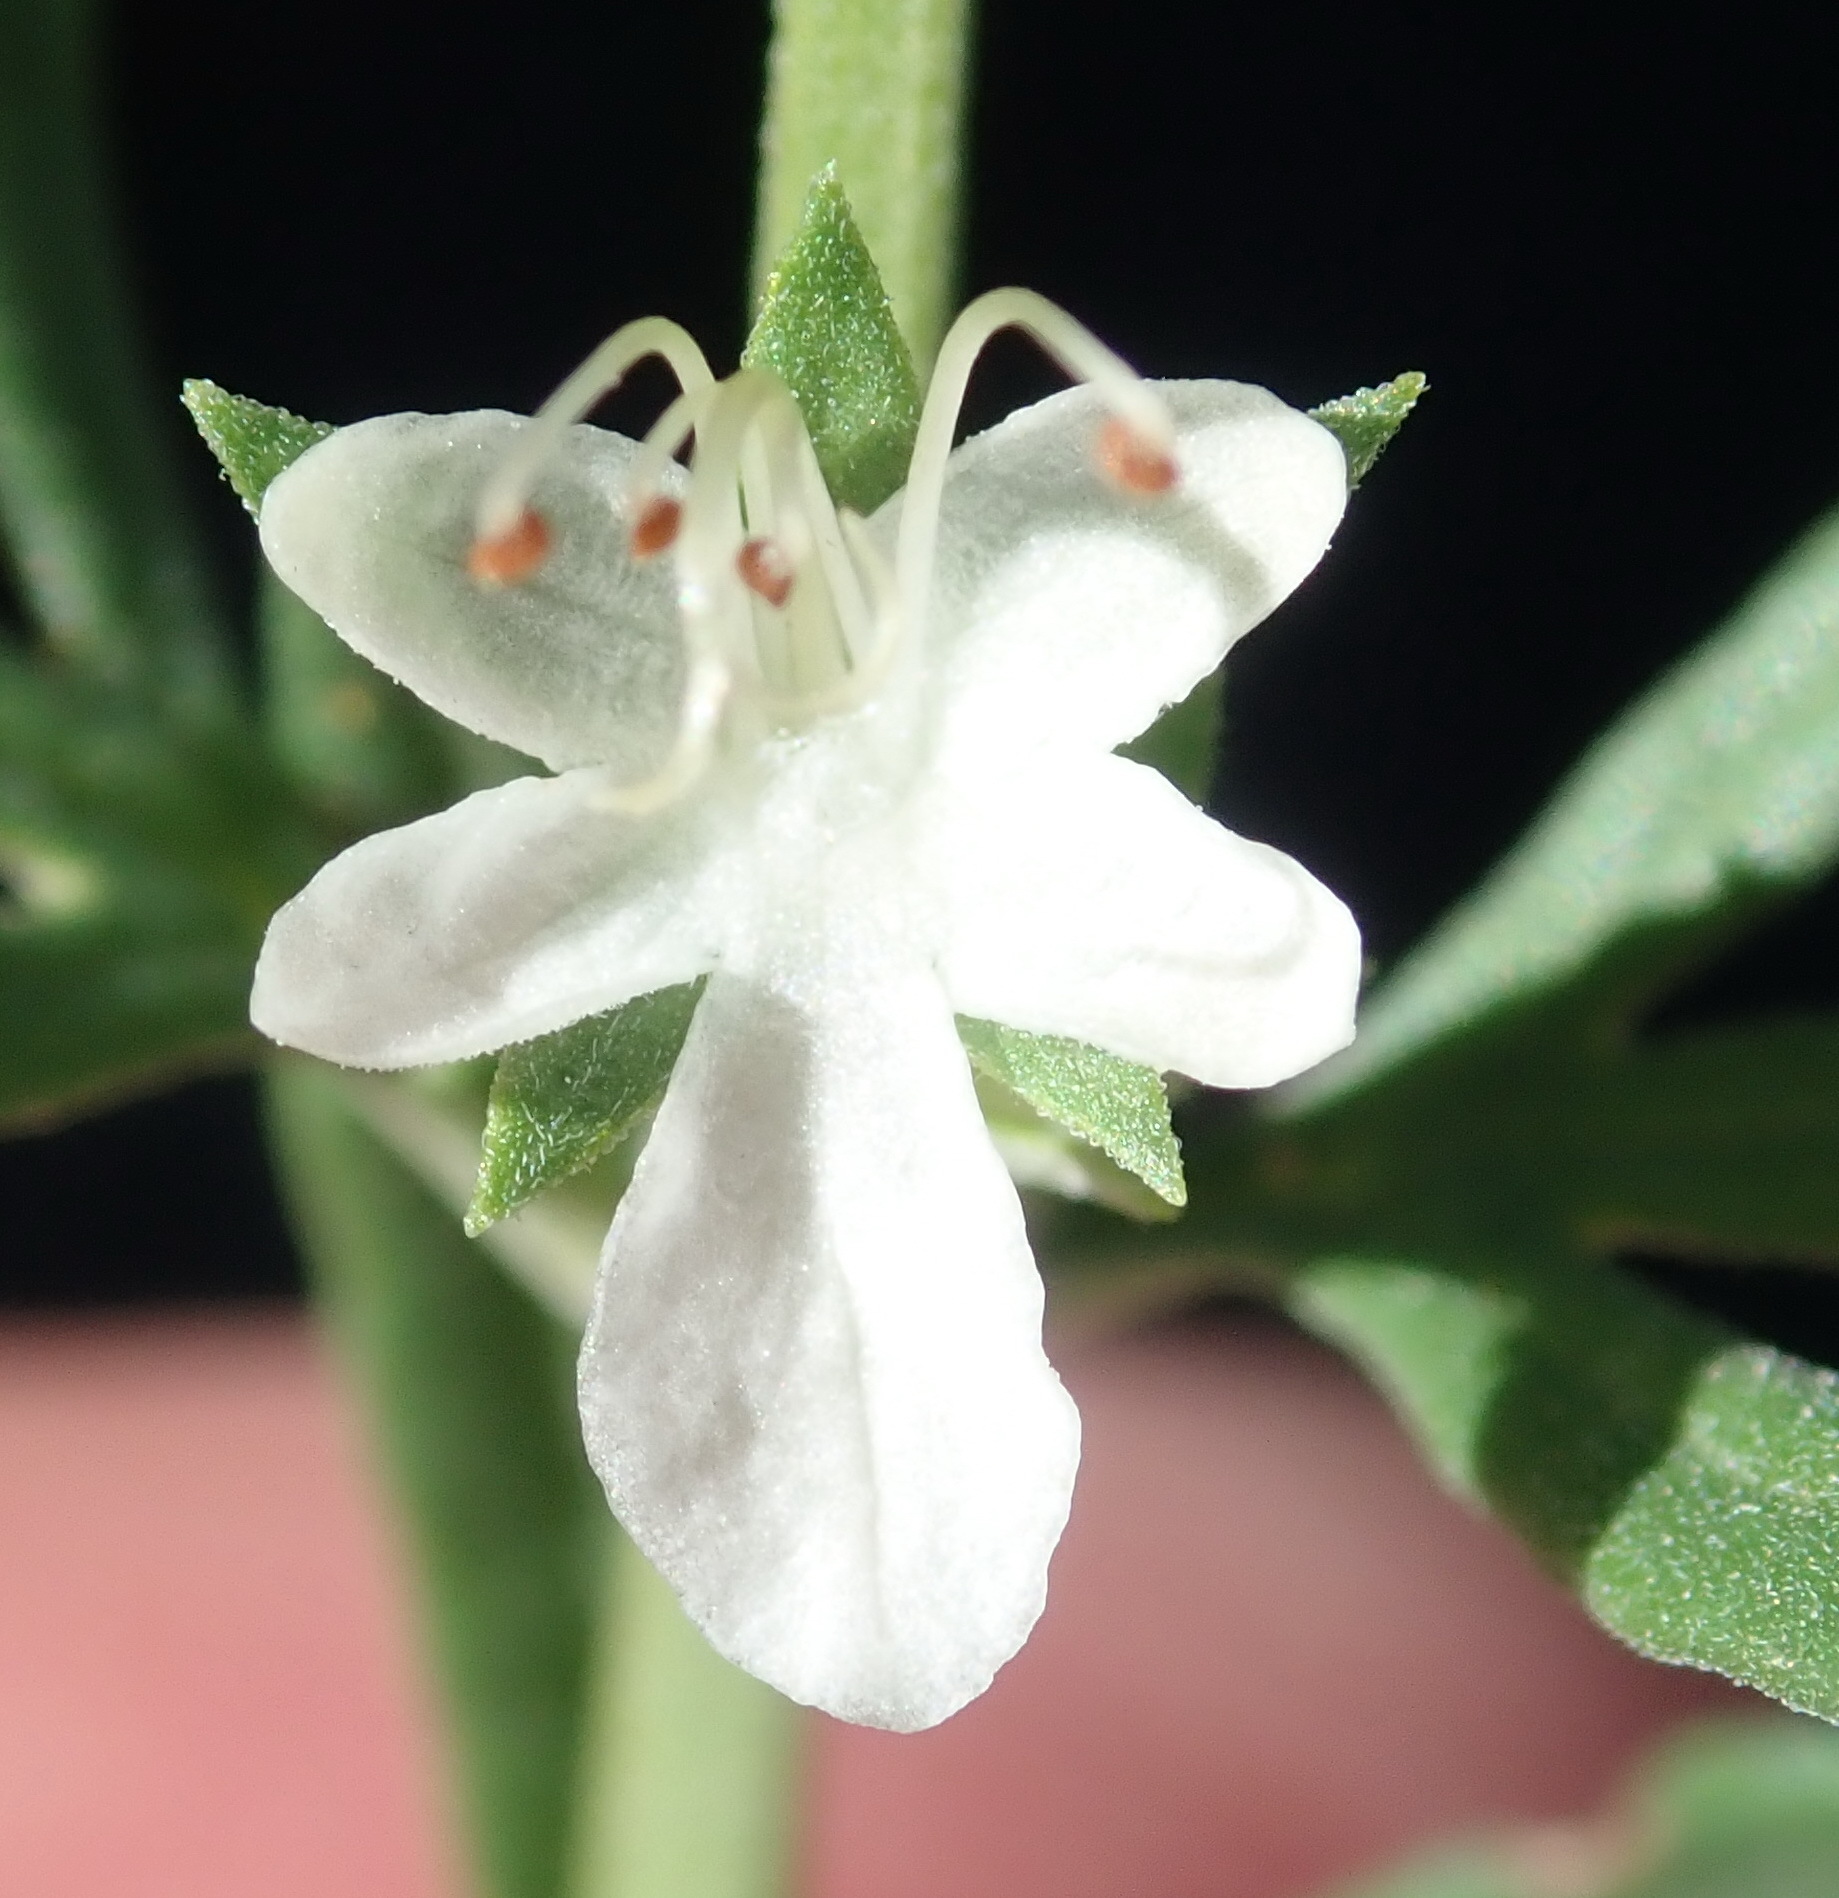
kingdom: Plantae
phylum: Tracheophyta
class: Magnoliopsida
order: Lamiales
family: Lamiaceae
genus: Teucrium
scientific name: Teucrium africanum
